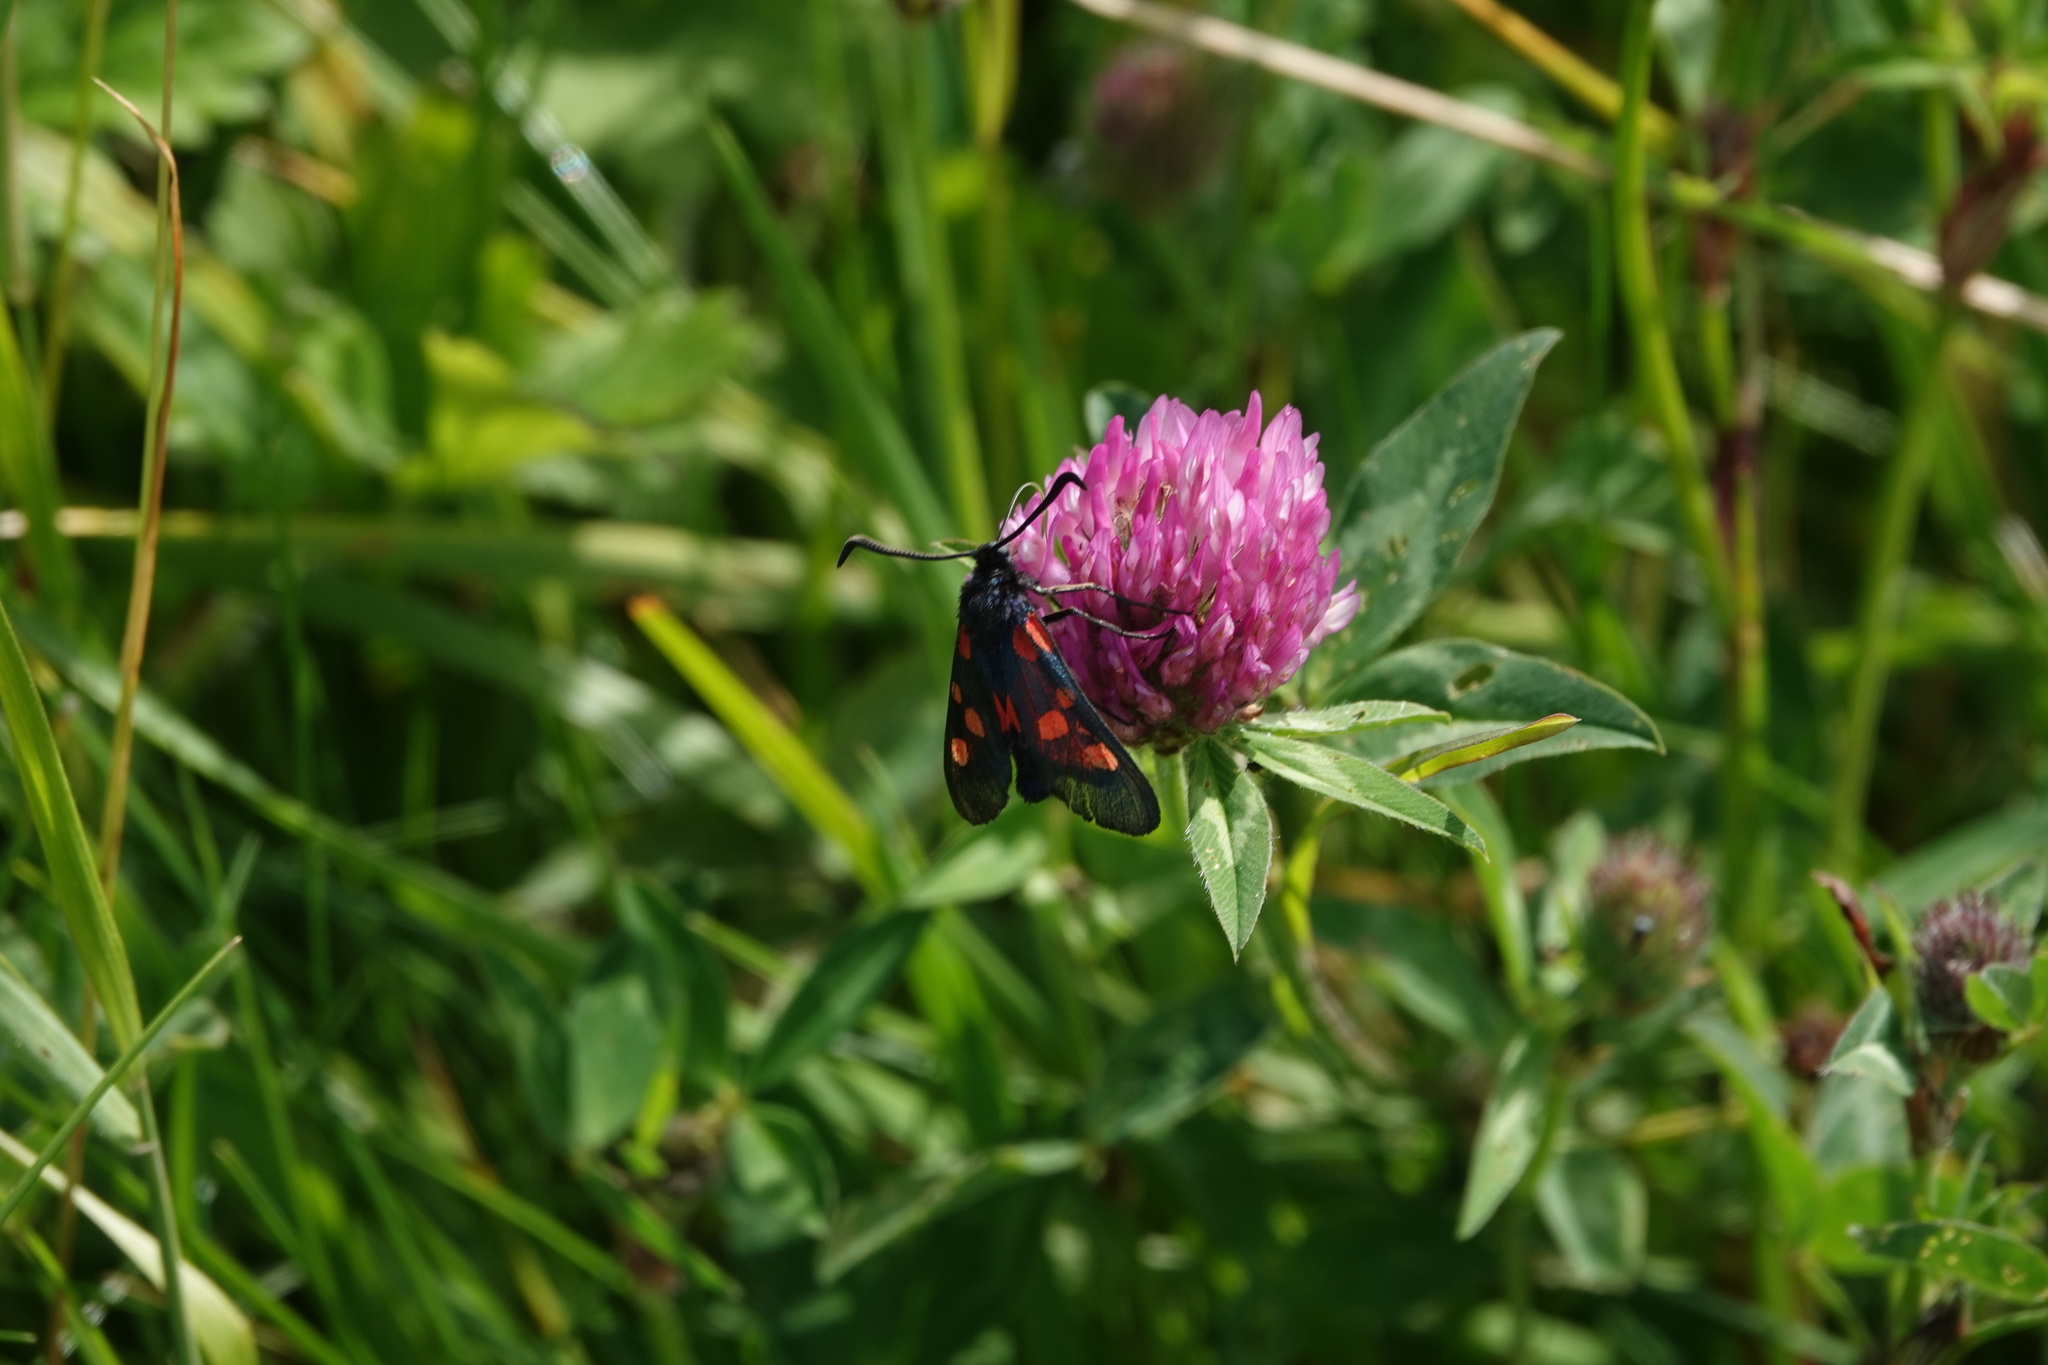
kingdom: Animalia
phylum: Arthropoda
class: Insecta
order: Lepidoptera
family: Zygaenidae
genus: Zygaena
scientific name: Zygaena trifolii
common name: Five-spot burnet
